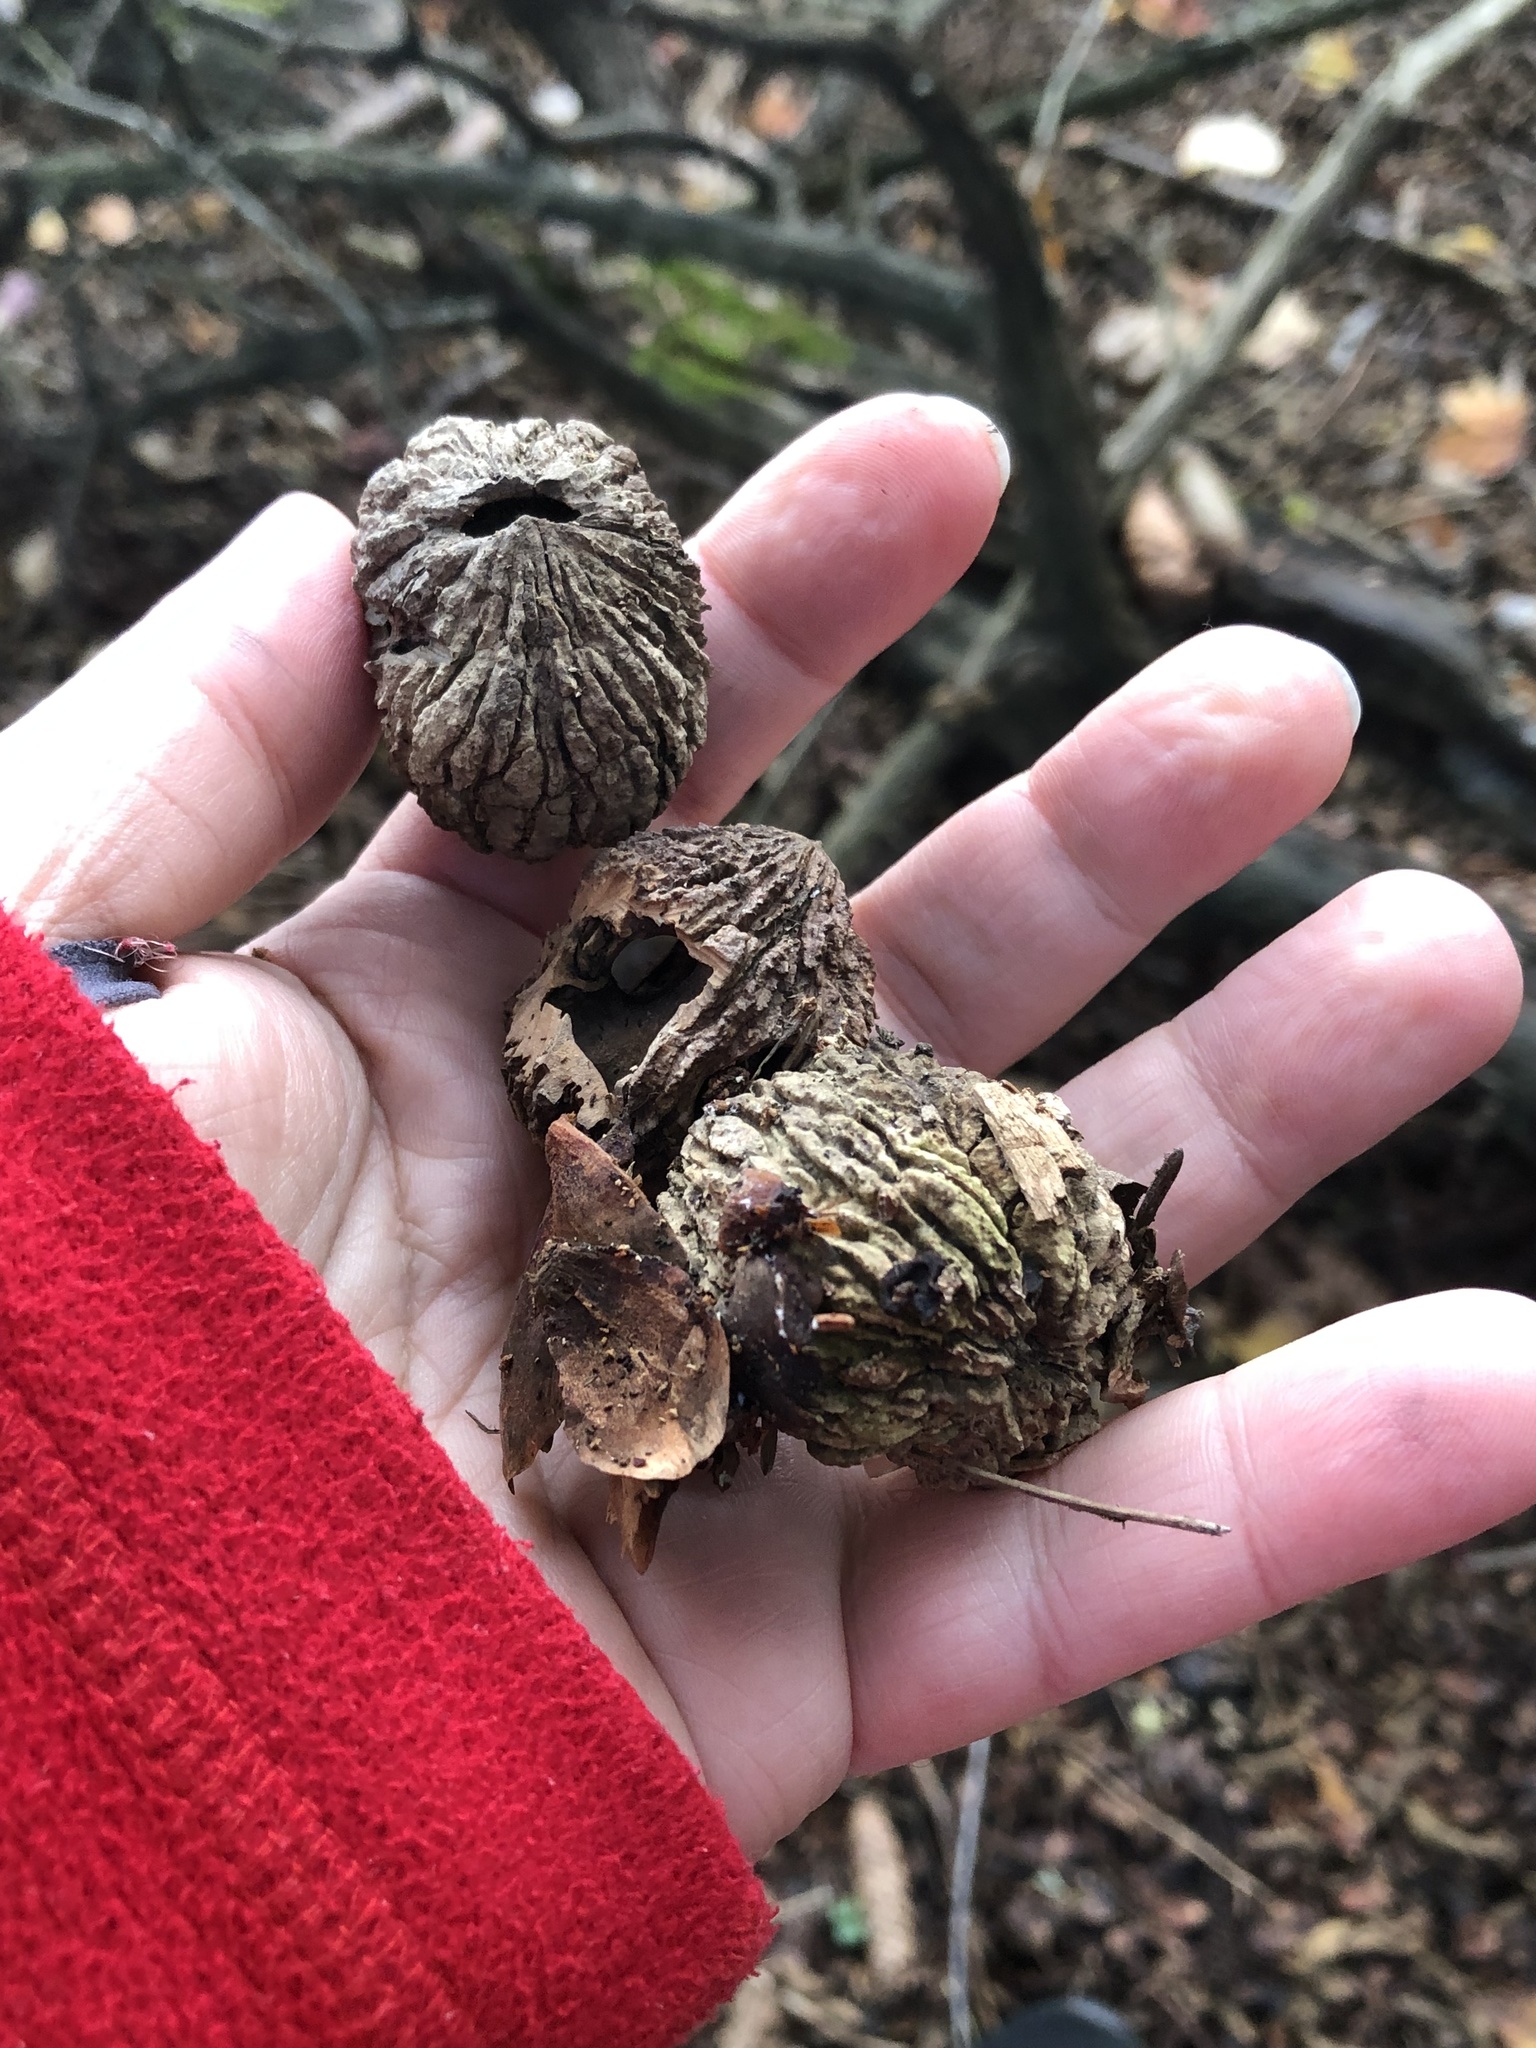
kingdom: Plantae
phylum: Tracheophyta
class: Magnoliopsida
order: Fagales
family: Juglandaceae
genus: Juglans
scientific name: Juglans nigra
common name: Black walnut
